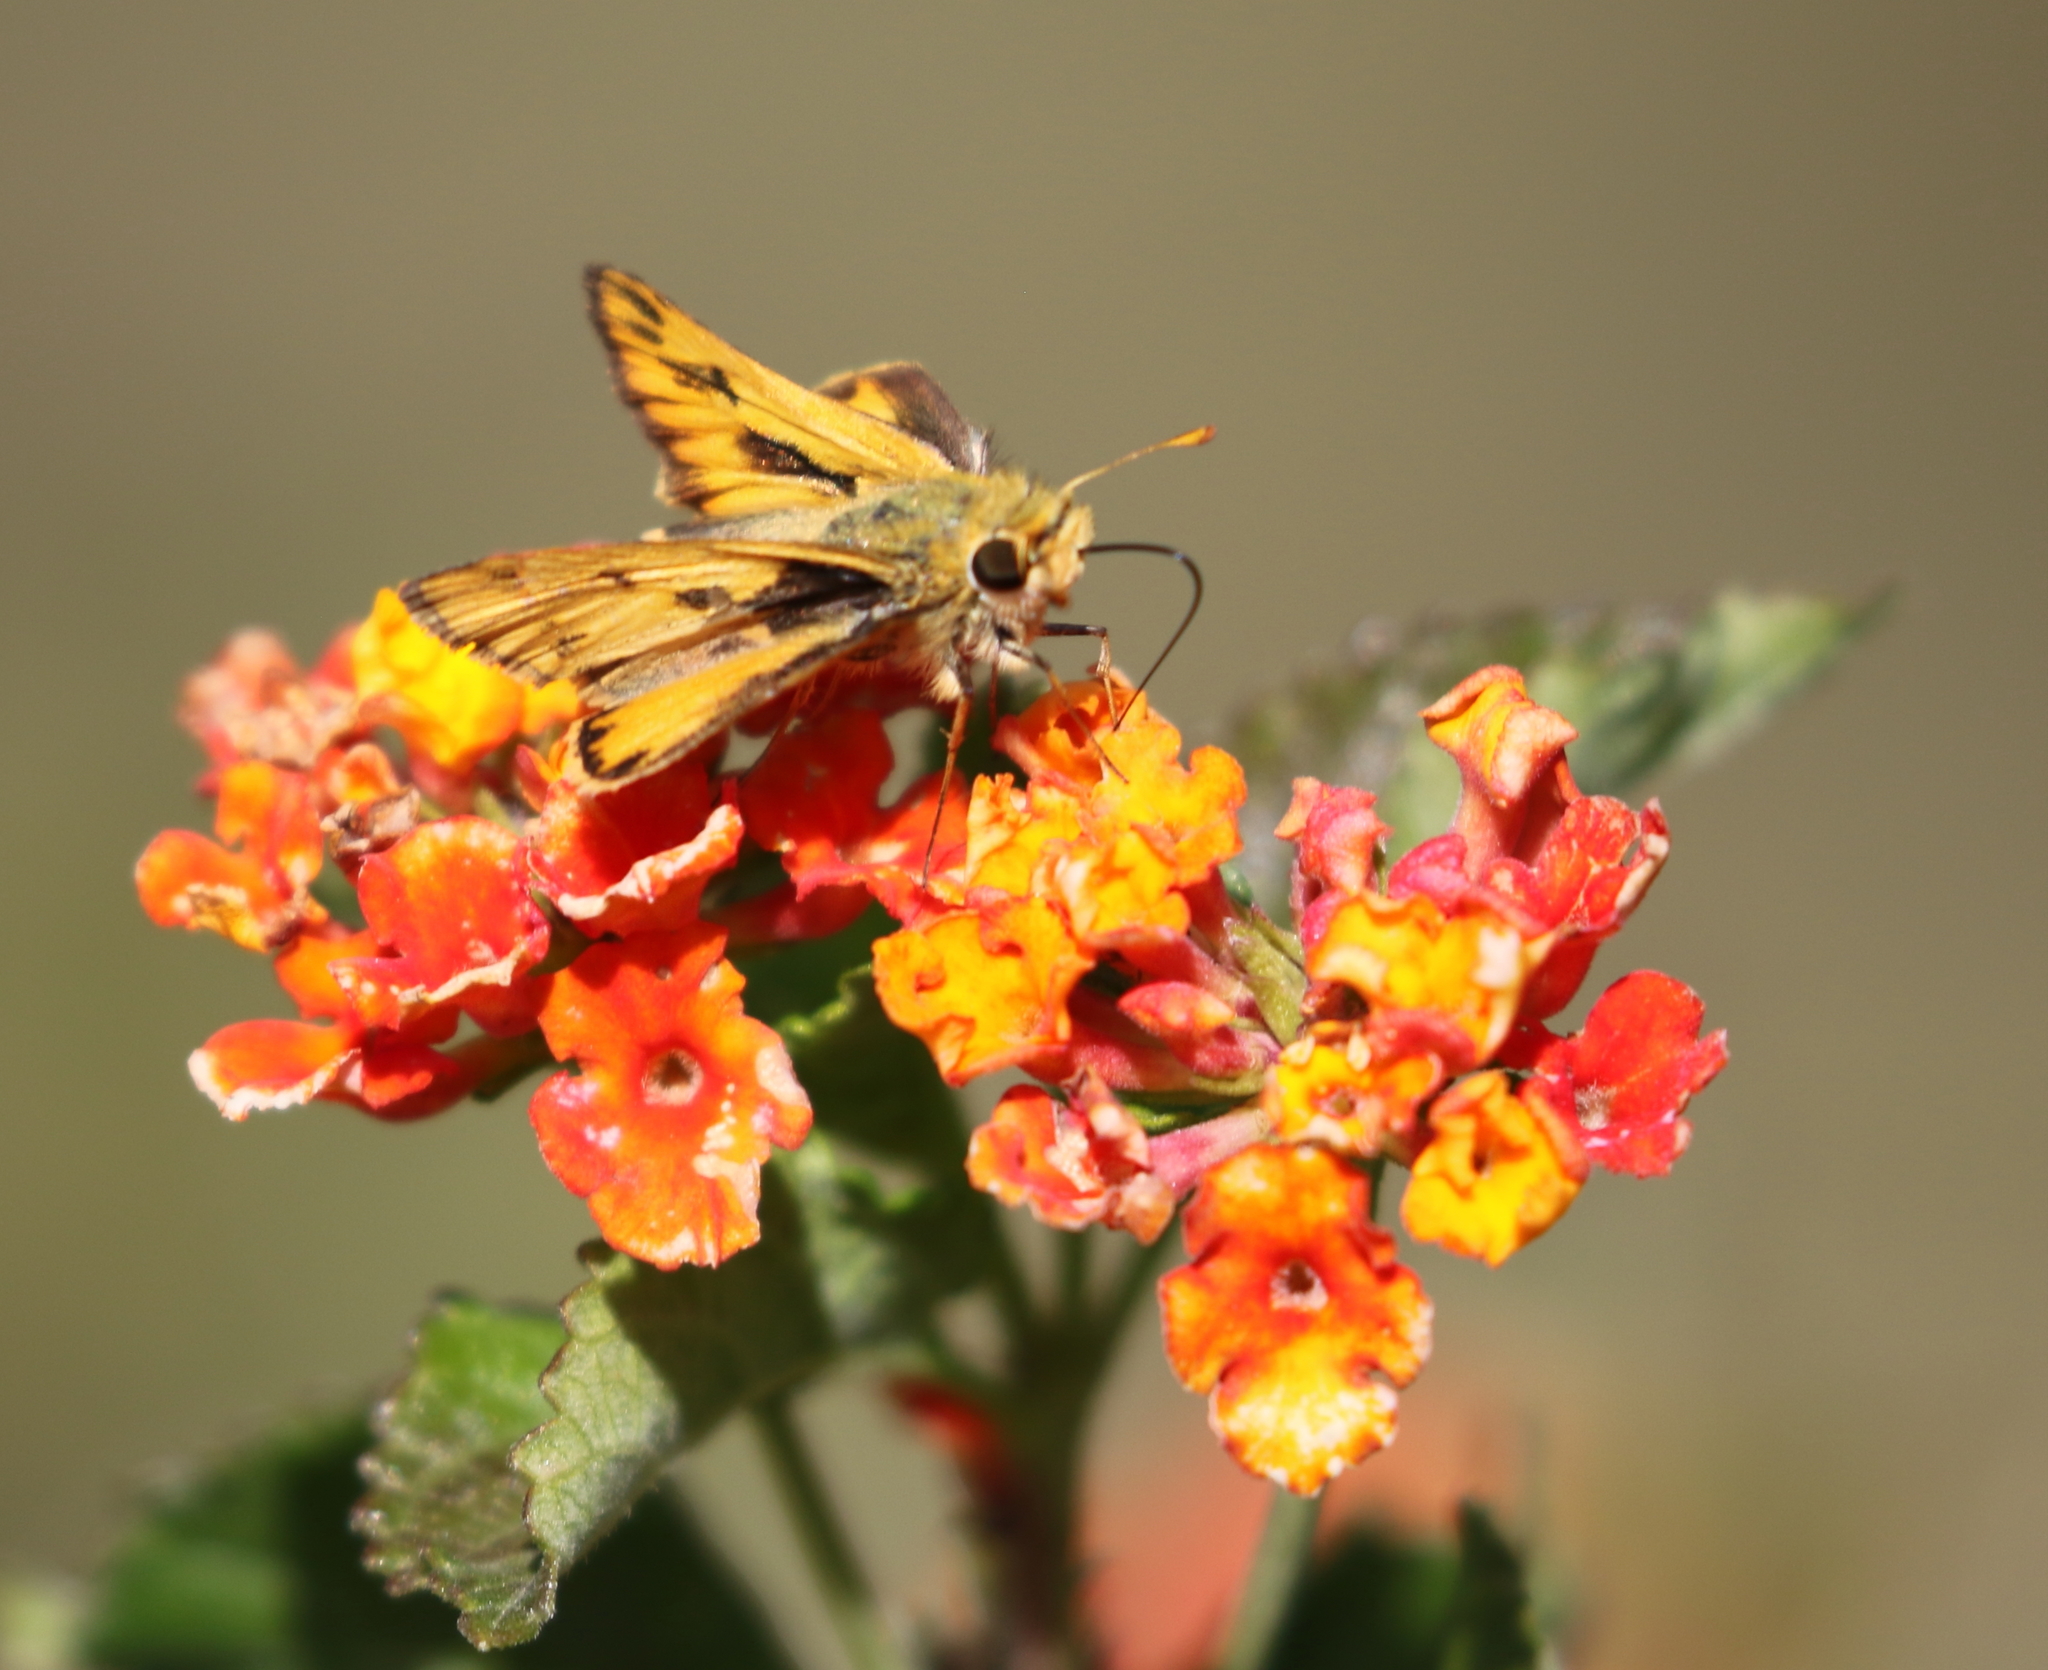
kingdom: Animalia
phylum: Arthropoda
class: Insecta
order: Lepidoptera
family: Hesperiidae
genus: Hylephila
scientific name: Hylephila phyleus
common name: Fiery skipper
